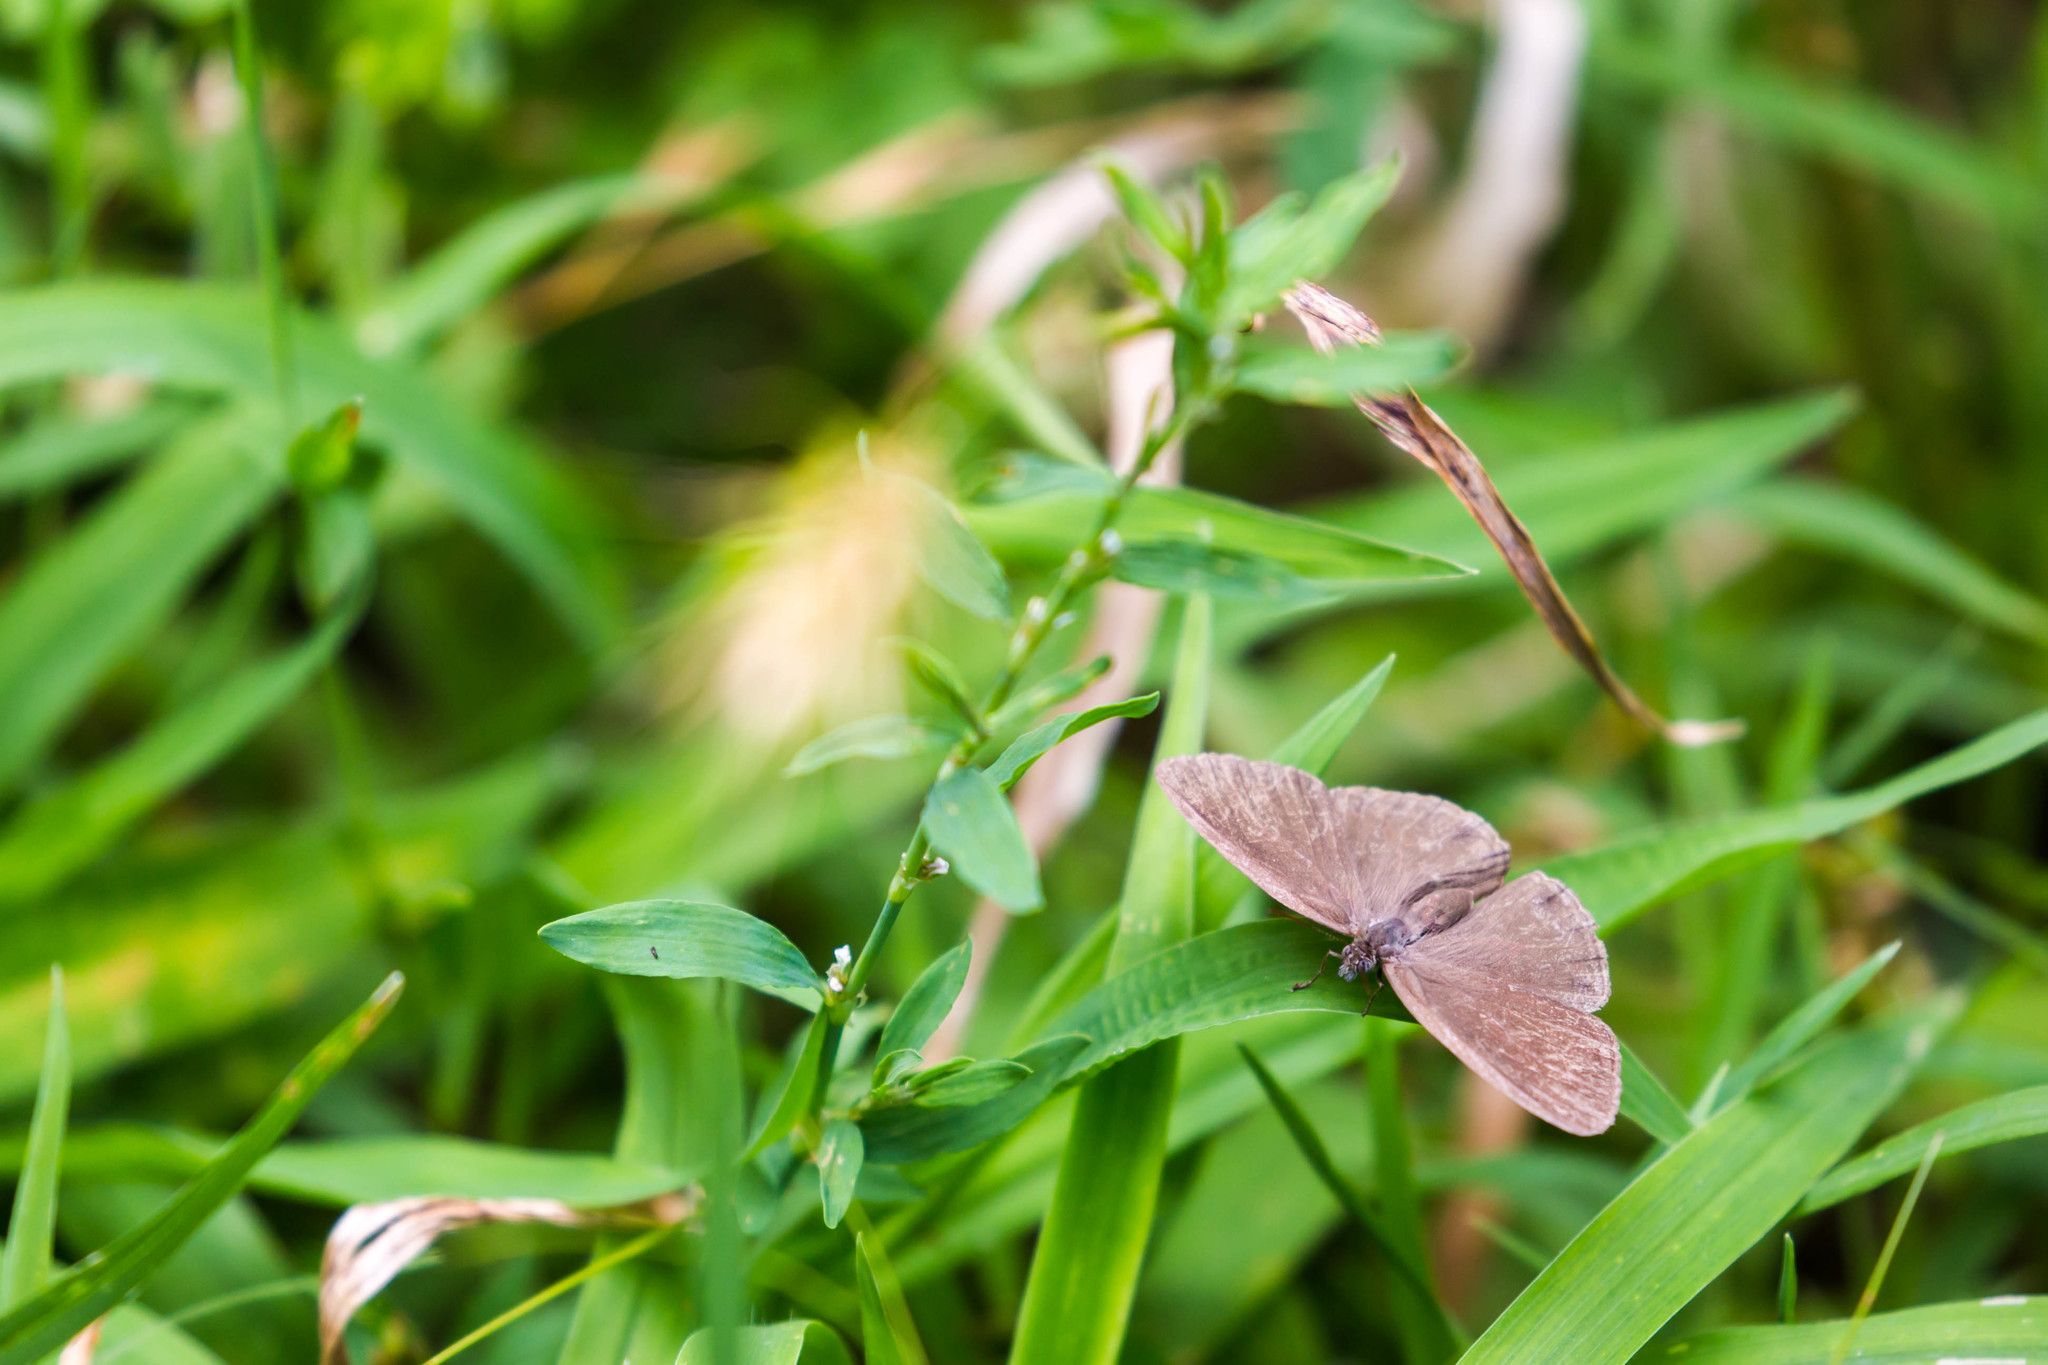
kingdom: Animalia
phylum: Arthropoda
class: Insecta
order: Lepidoptera
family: Nymphalidae
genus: Hermeuptychia
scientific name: Hermeuptychia hermes
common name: Hermes satyr
